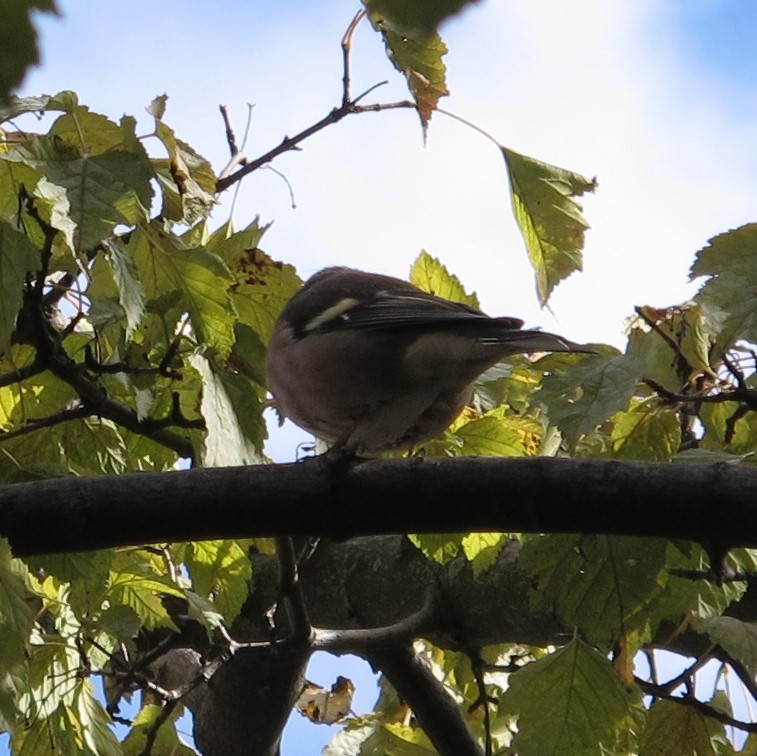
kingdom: Animalia
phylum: Chordata
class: Aves
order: Passeriformes
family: Fringillidae
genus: Fringilla
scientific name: Fringilla coelebs
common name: Common chaffinch
